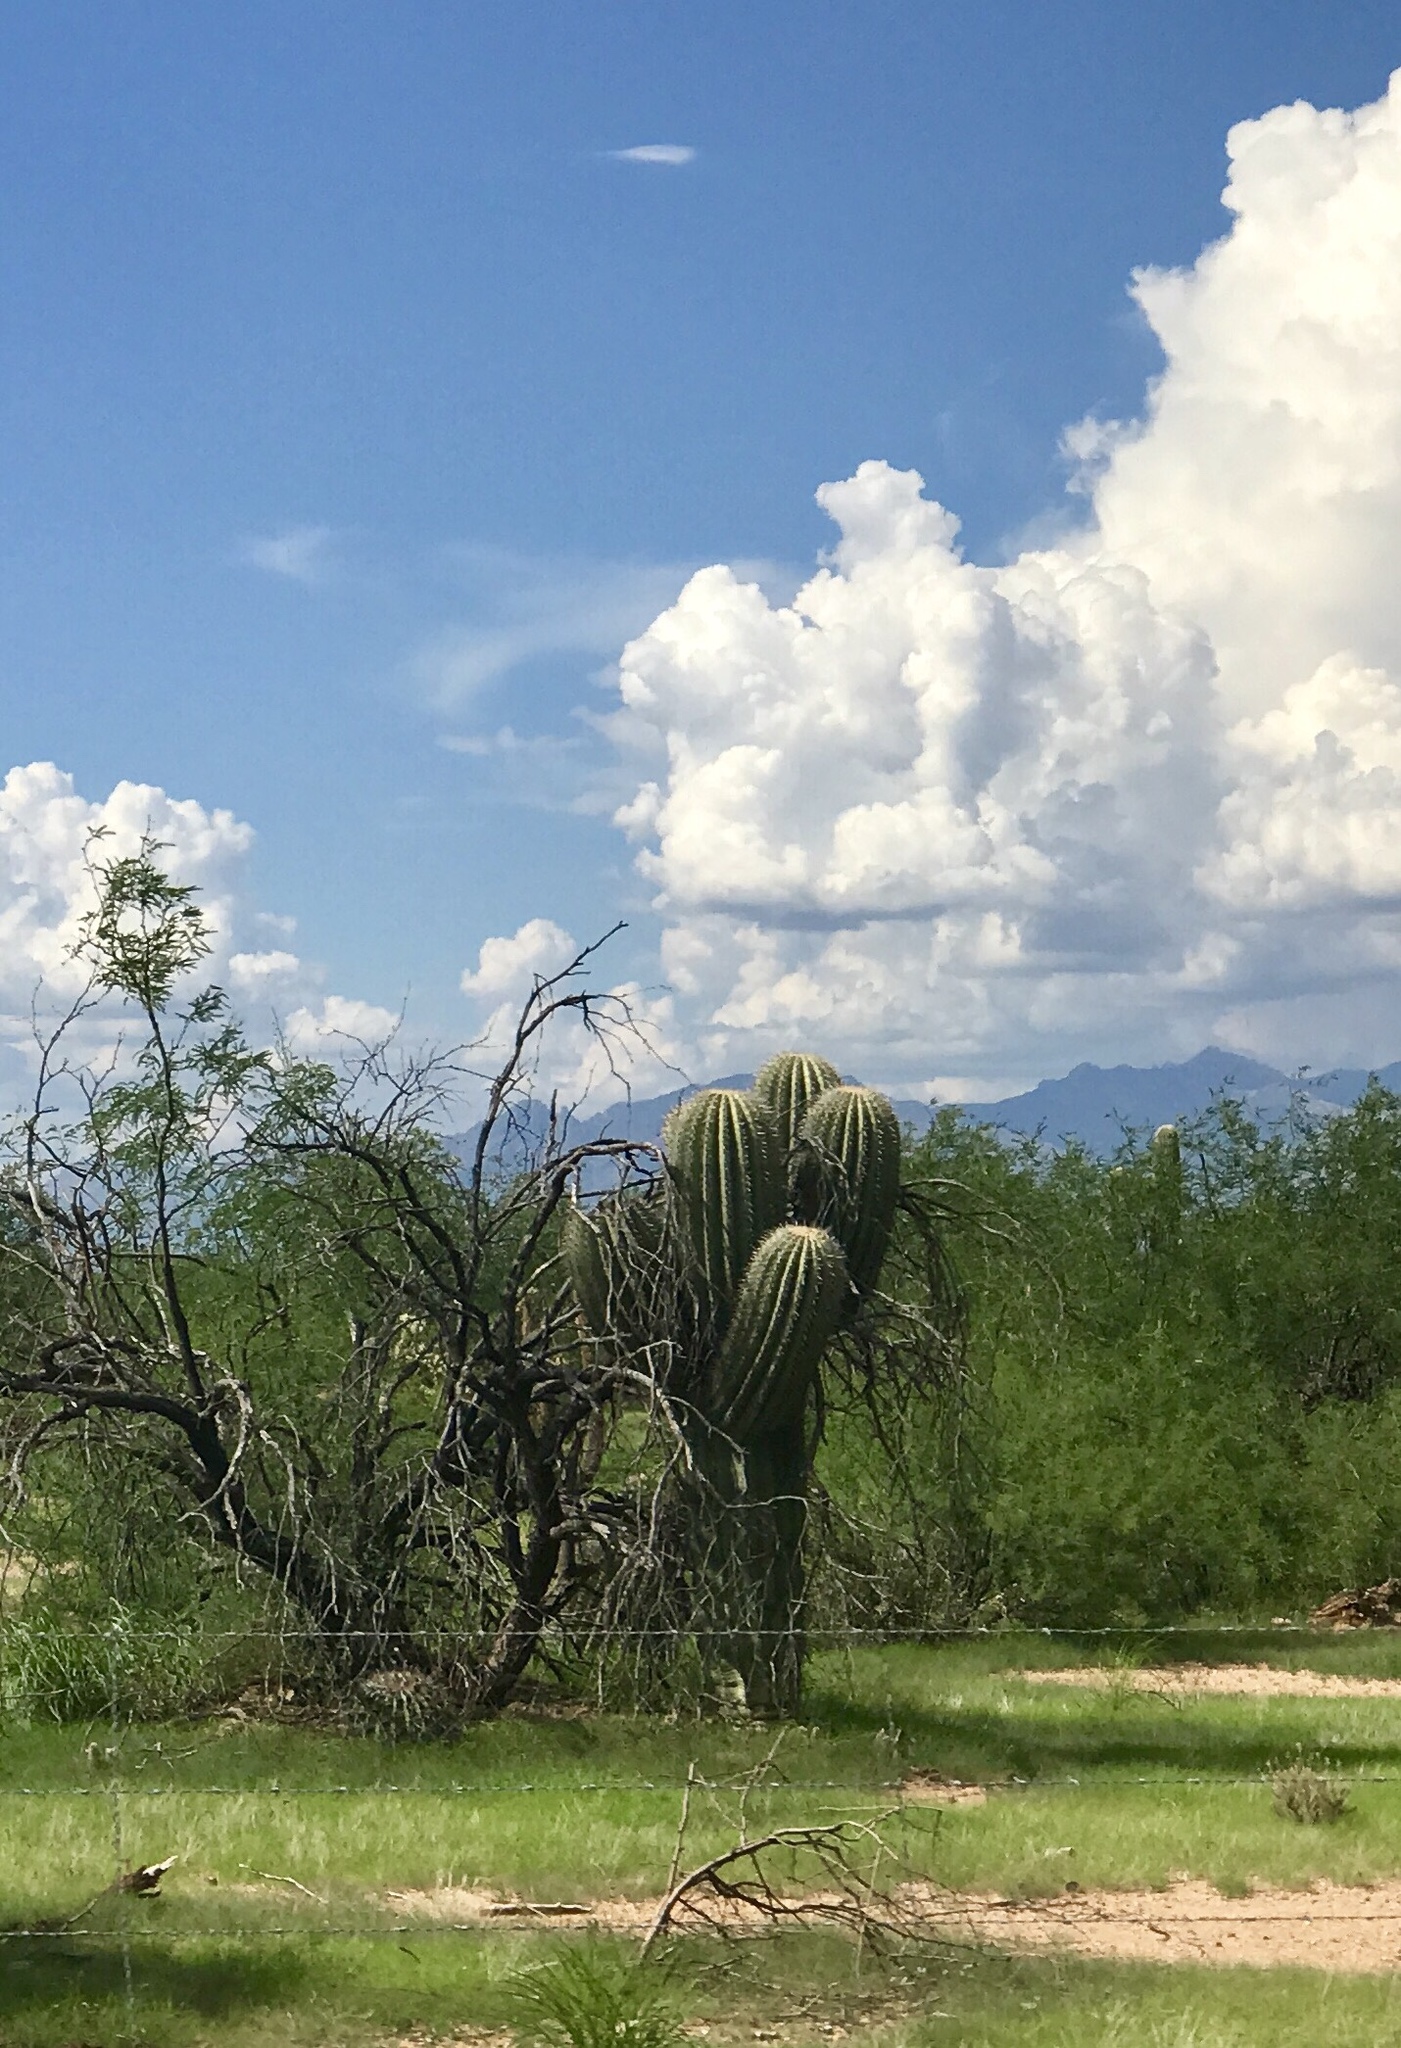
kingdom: Plantae
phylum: Tracheophyta
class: Magnoliopsida
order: Caryophyllales
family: Cactaceae
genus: Carnegiea
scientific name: Carnegiea gigantea
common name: Saguaro
